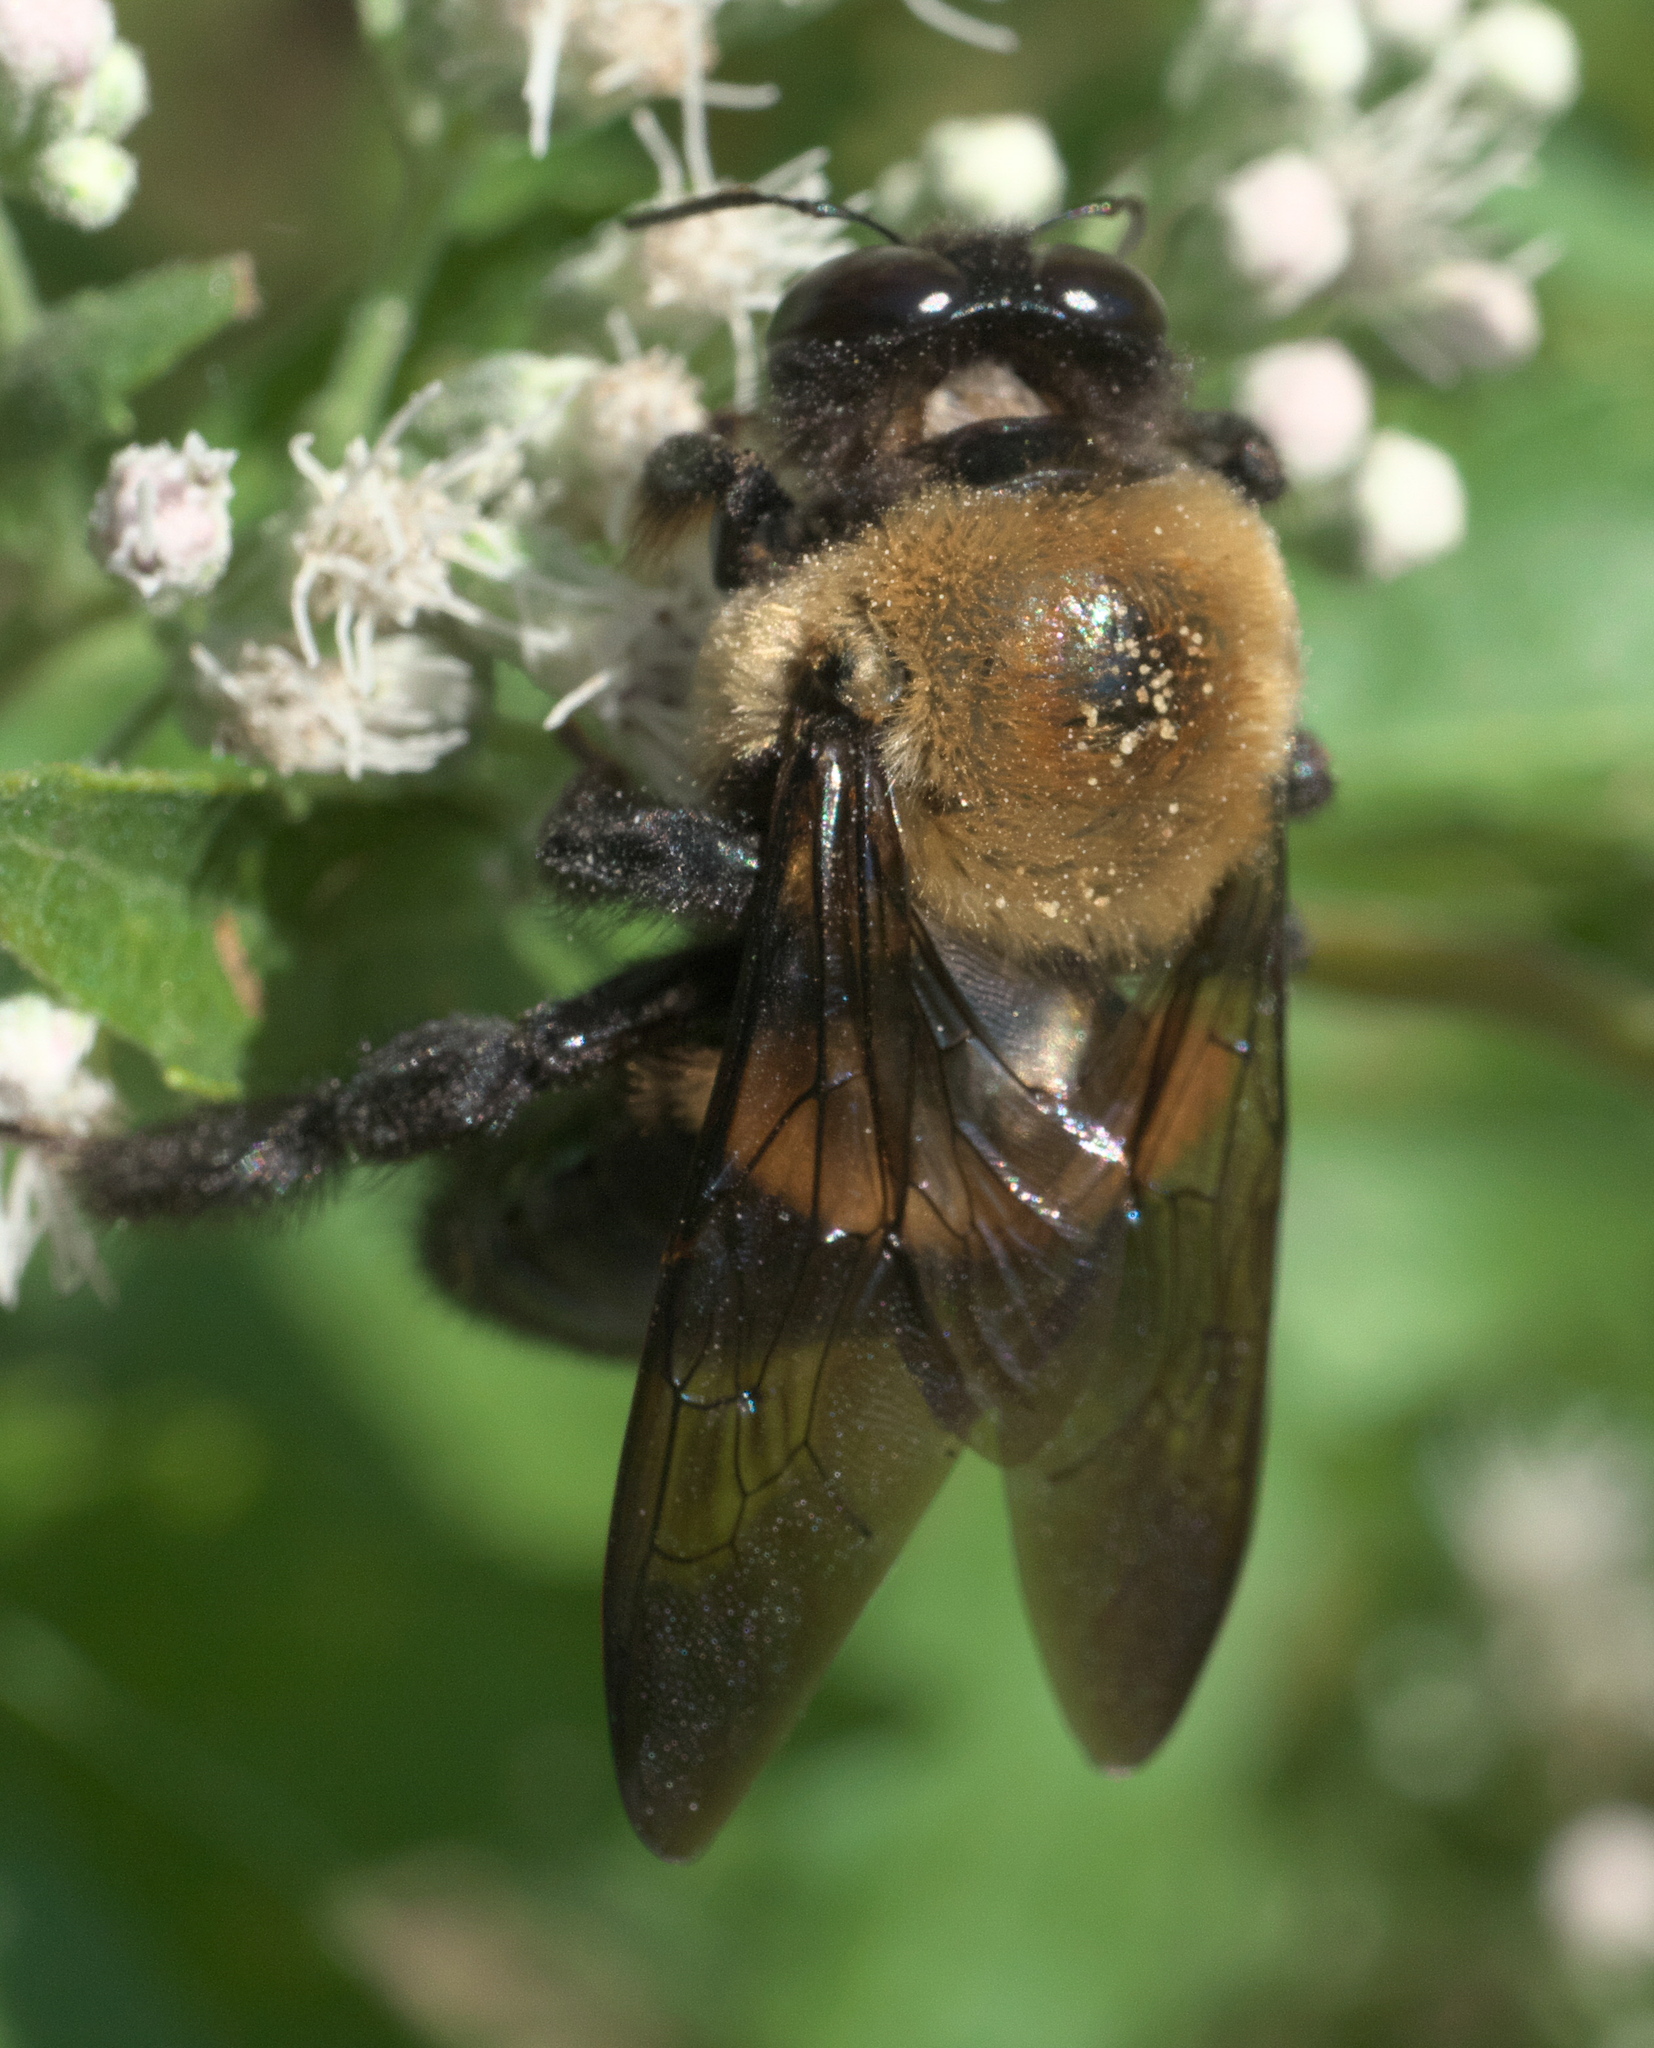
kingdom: Animalia
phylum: Arthropoda
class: Insecta
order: Hymenoptera
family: Apidae
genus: Xylocopa
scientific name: Xylocopa virginica
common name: Carpenter bee
